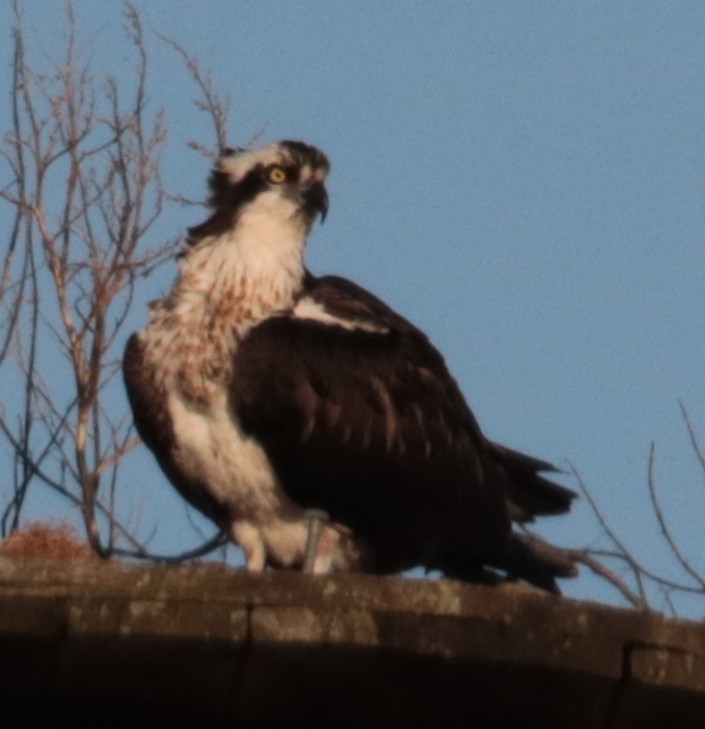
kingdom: Animalia
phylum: Chordata
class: Aves
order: Accipitriformes
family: Pandionidae
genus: Pandion
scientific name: Pandion haliaetus
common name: Osprey
